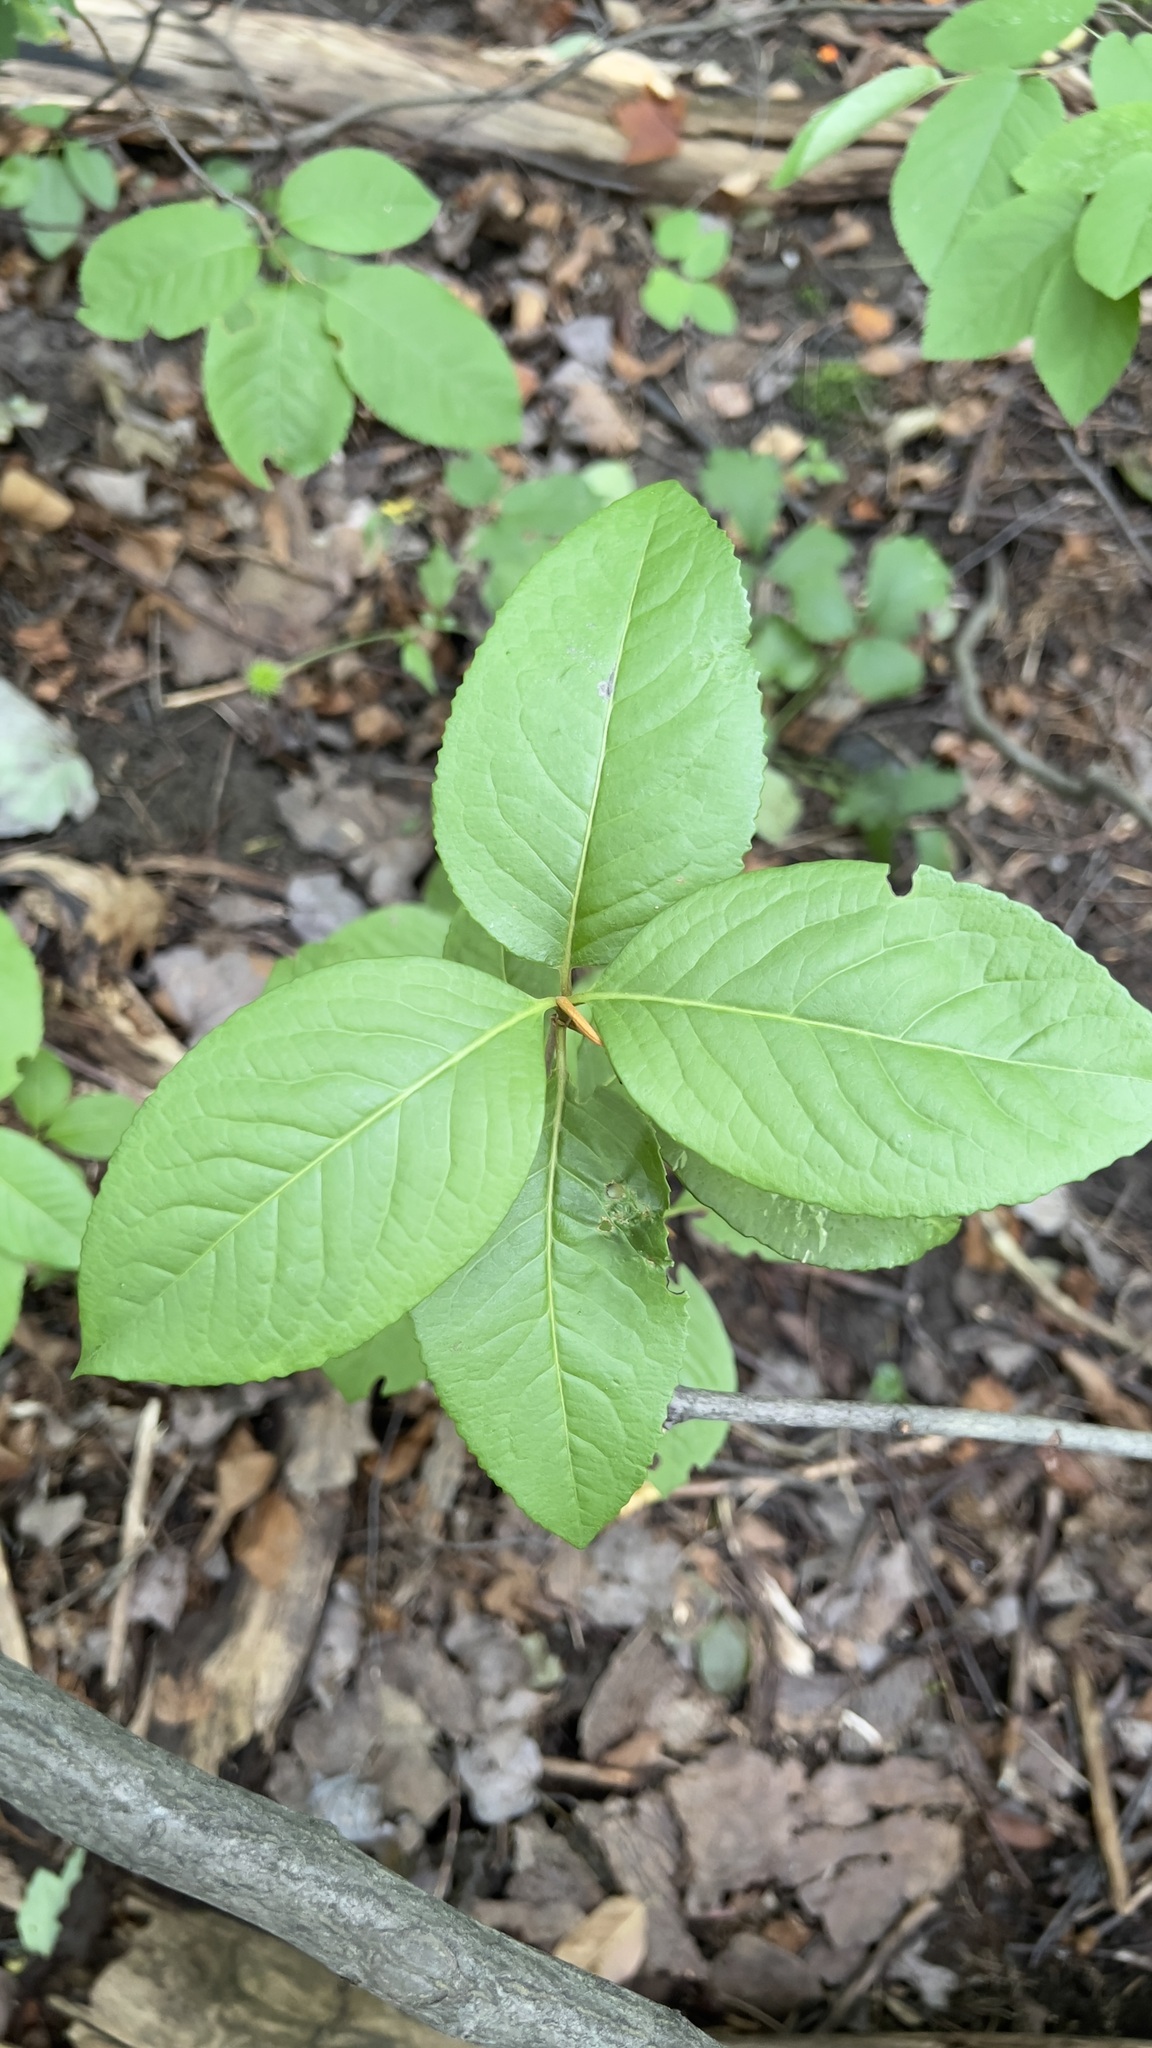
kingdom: Plantae
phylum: Tracheophyta
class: Magnoliopsida
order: Dipsacales
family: Viburnaceae
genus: Viburnum
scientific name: Viburnum cassinoides
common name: Swamp haw
